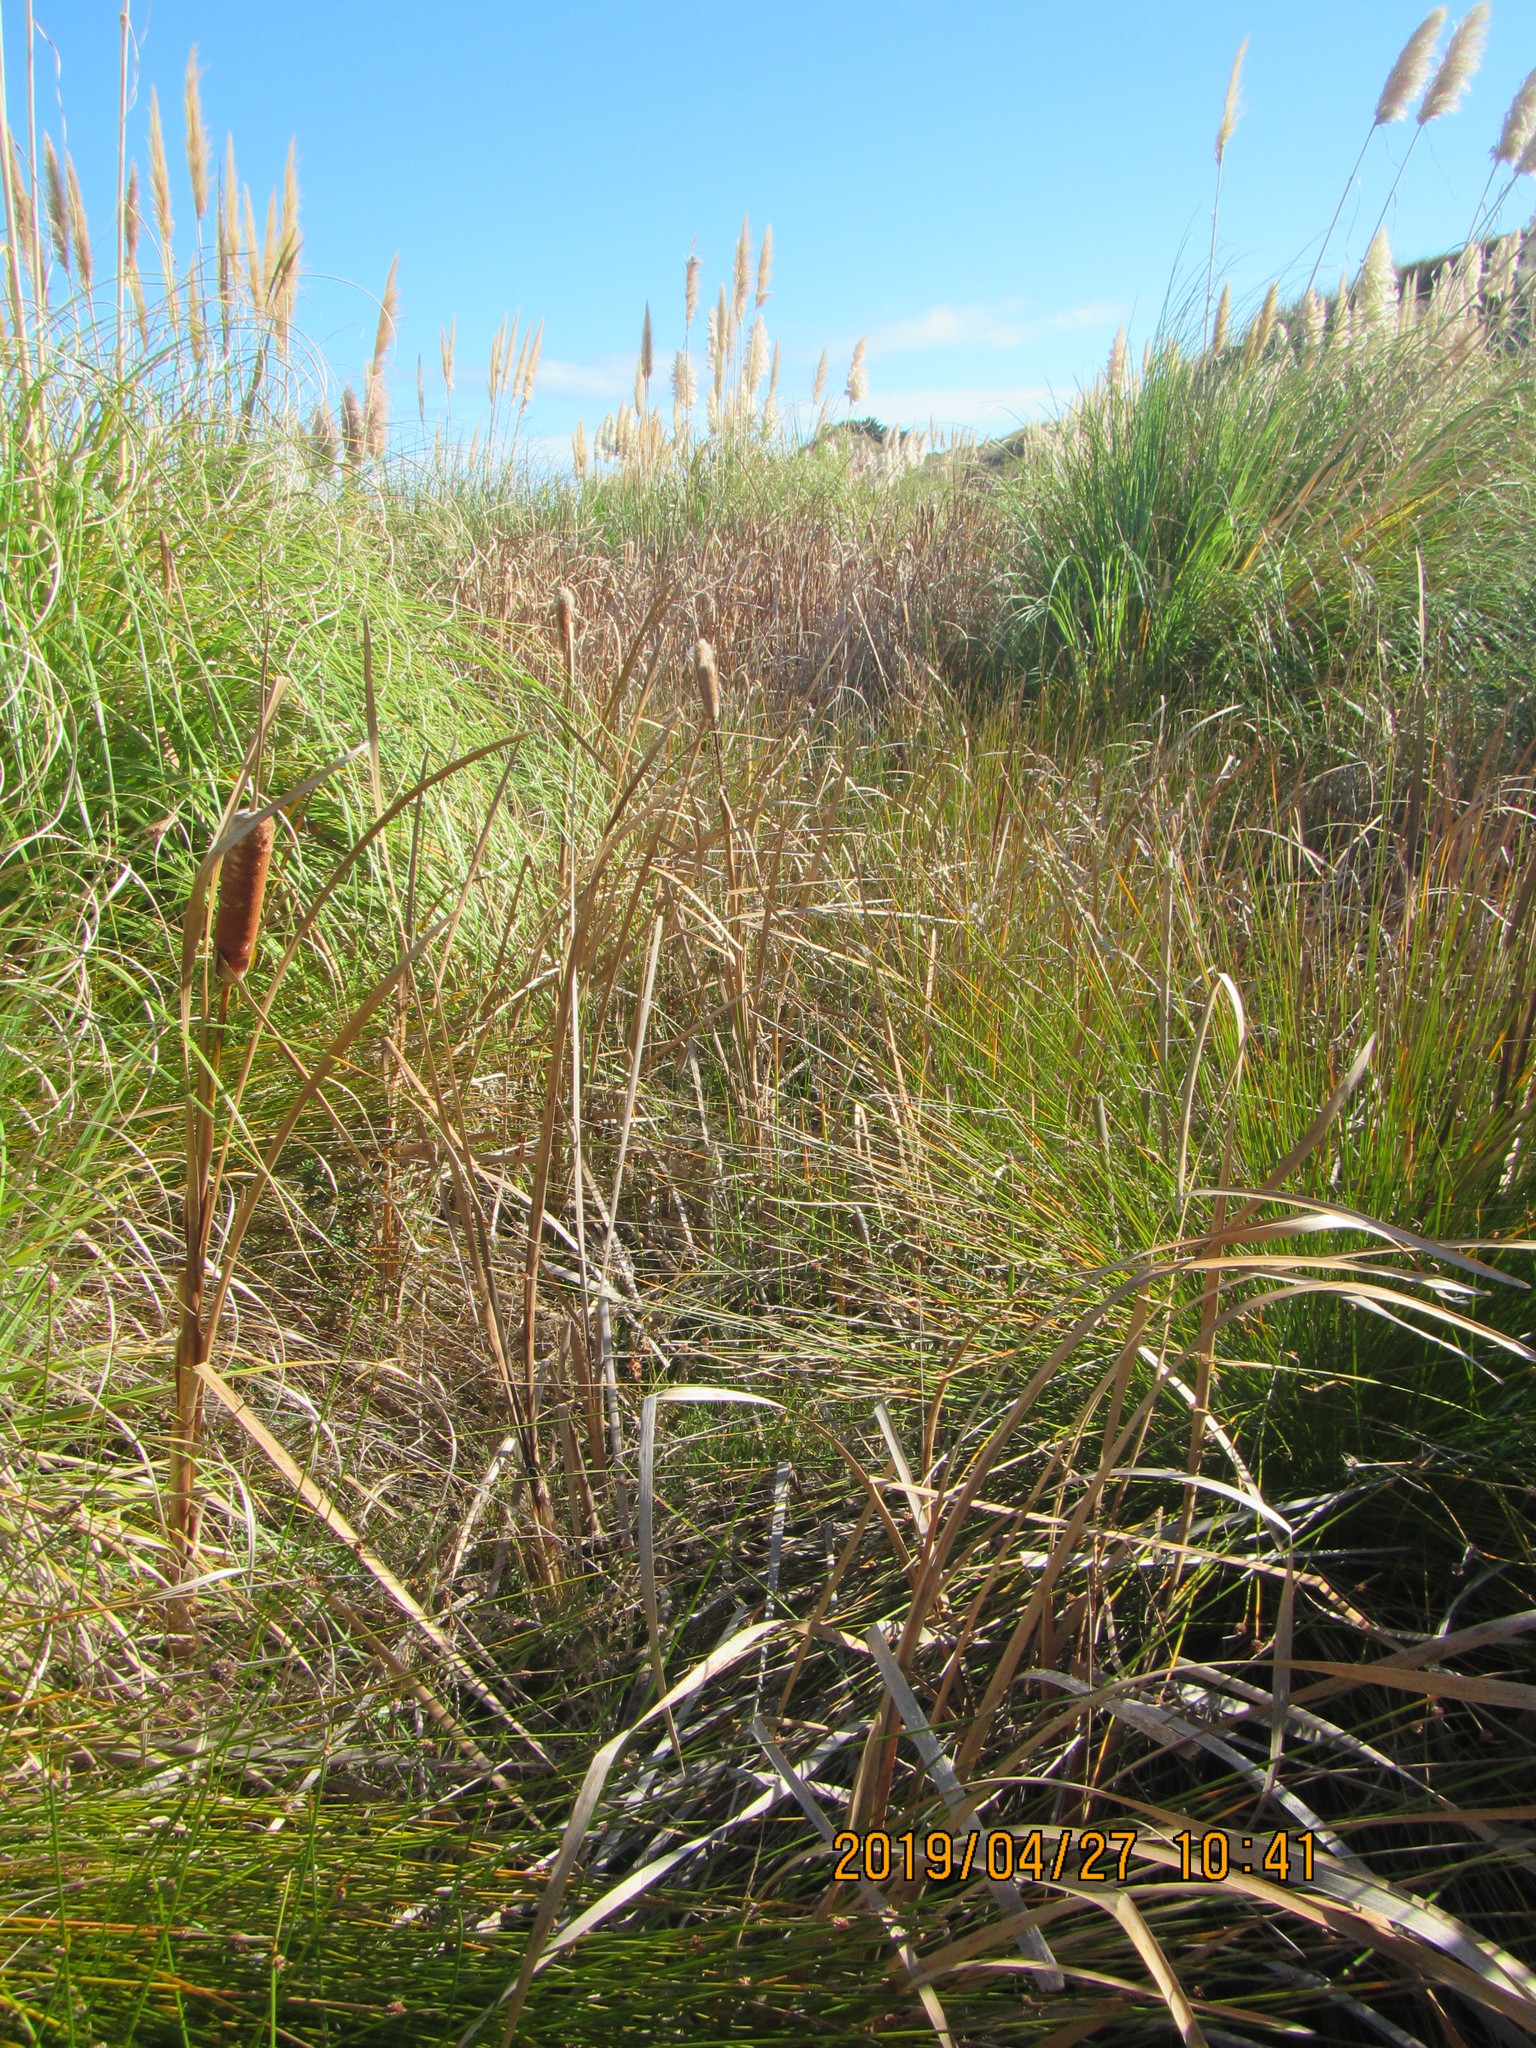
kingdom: Plantae
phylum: Tracheophyta
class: Liliopsida
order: Poales
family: Typhaceae
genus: Typha
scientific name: Typha orientalis
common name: Bullrush
